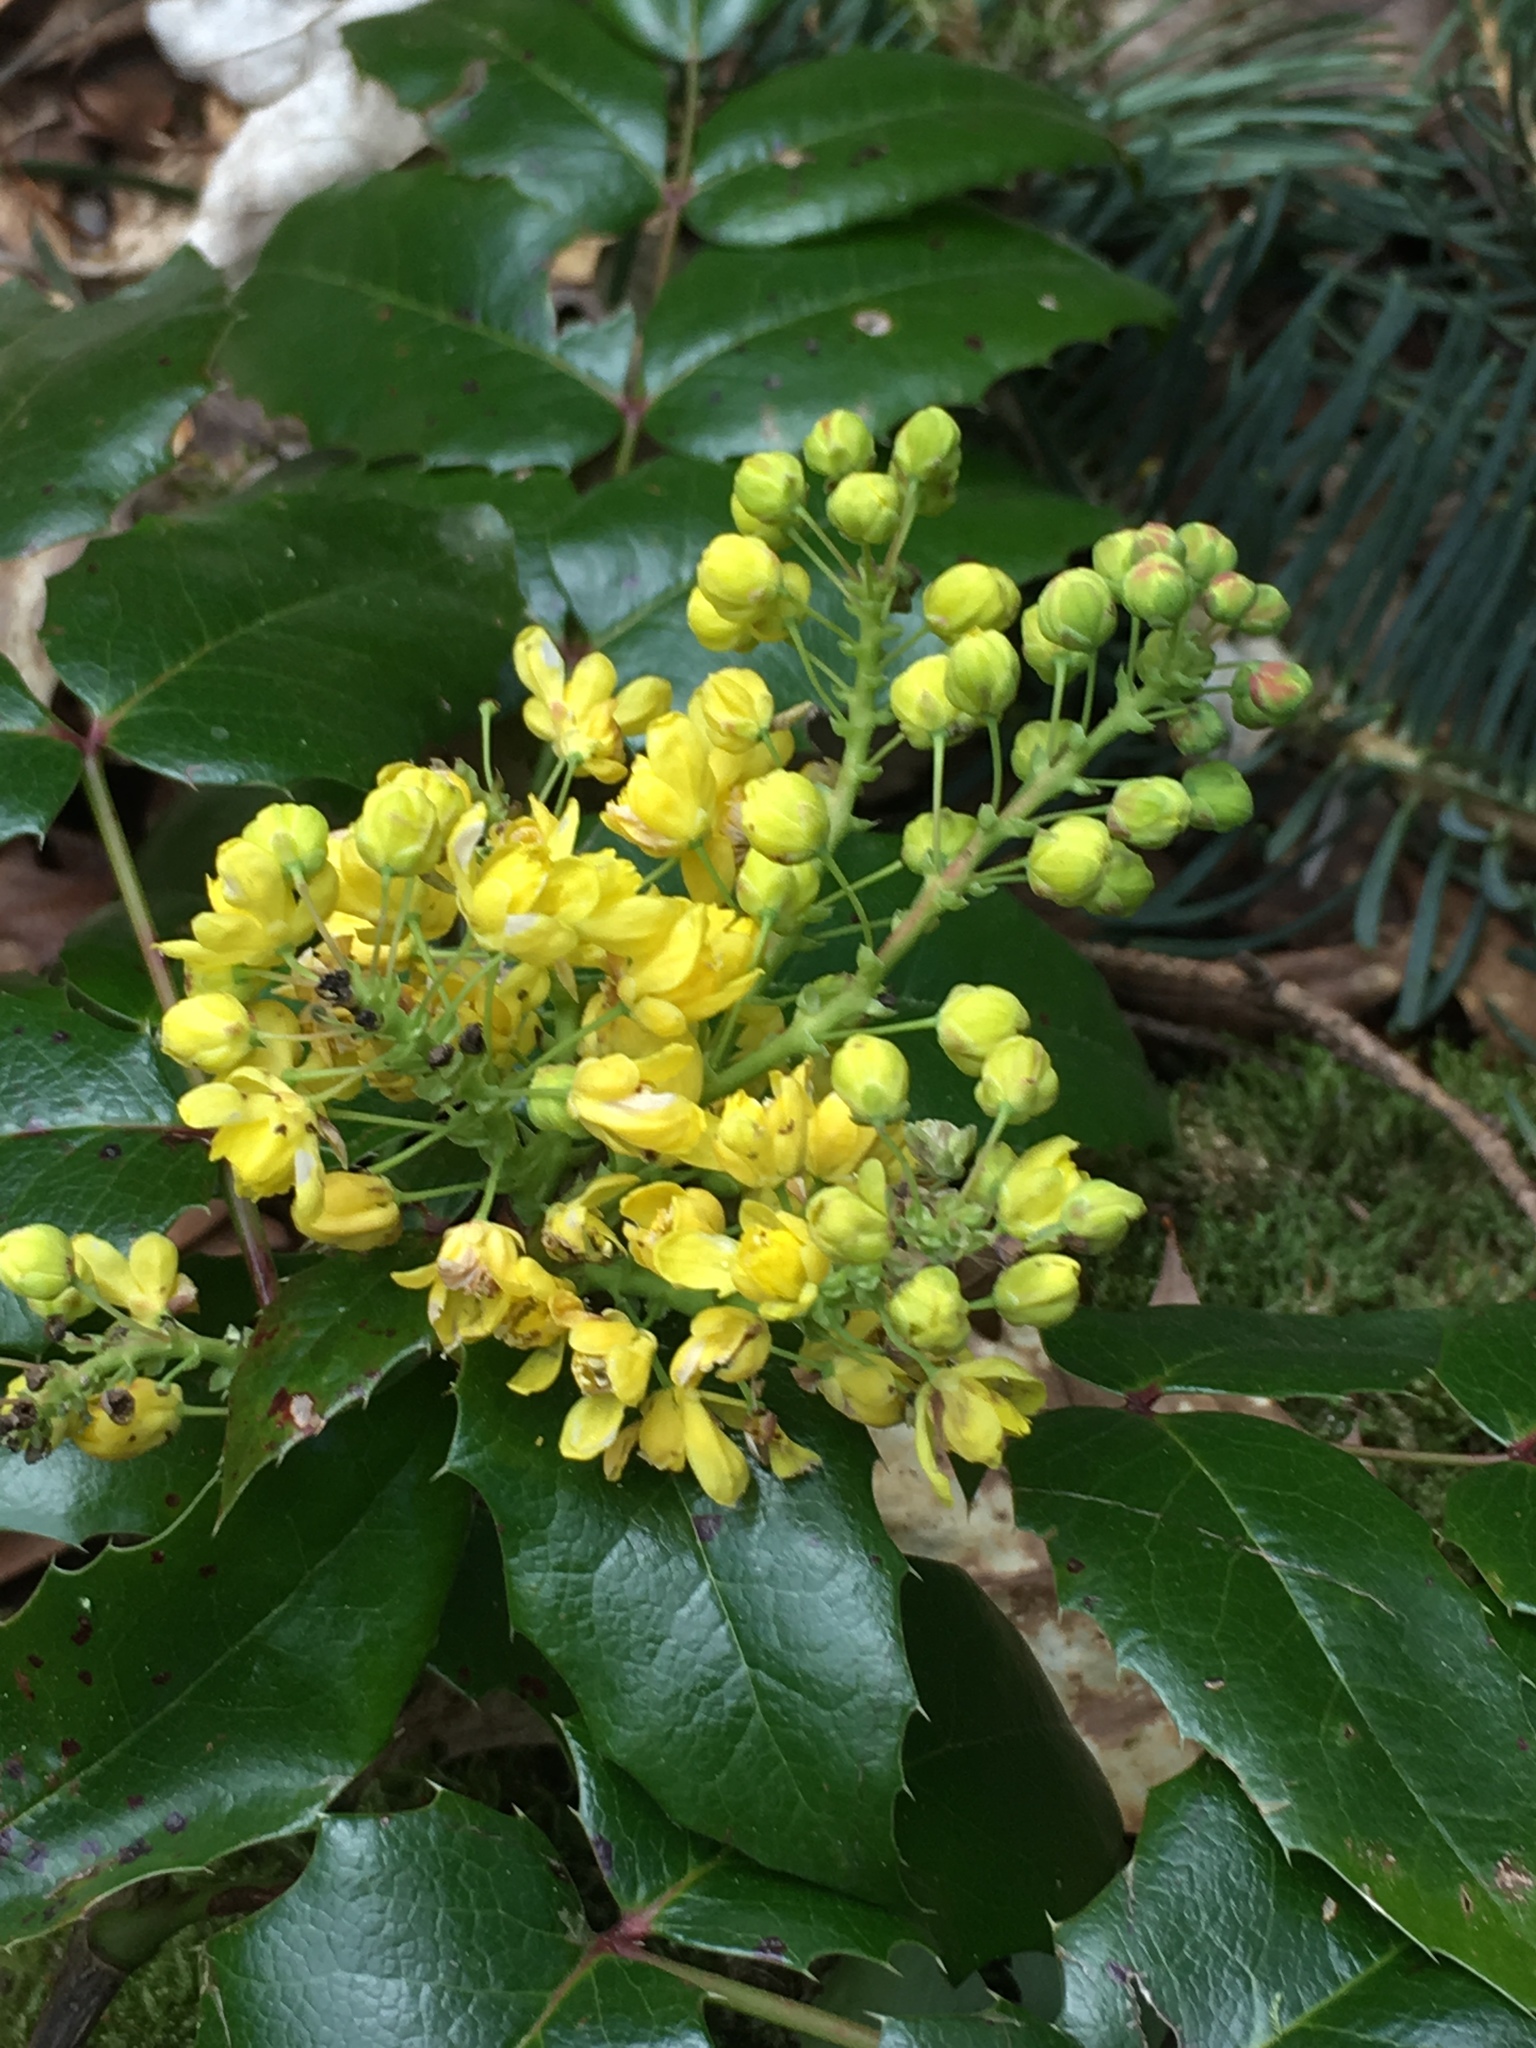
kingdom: Plantae
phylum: Tracheophyta
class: Magnoliopsida
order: Ranunculales
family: Berberidaceae
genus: Mahonia
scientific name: Mahonia aquifolium
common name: Oregon-grape
